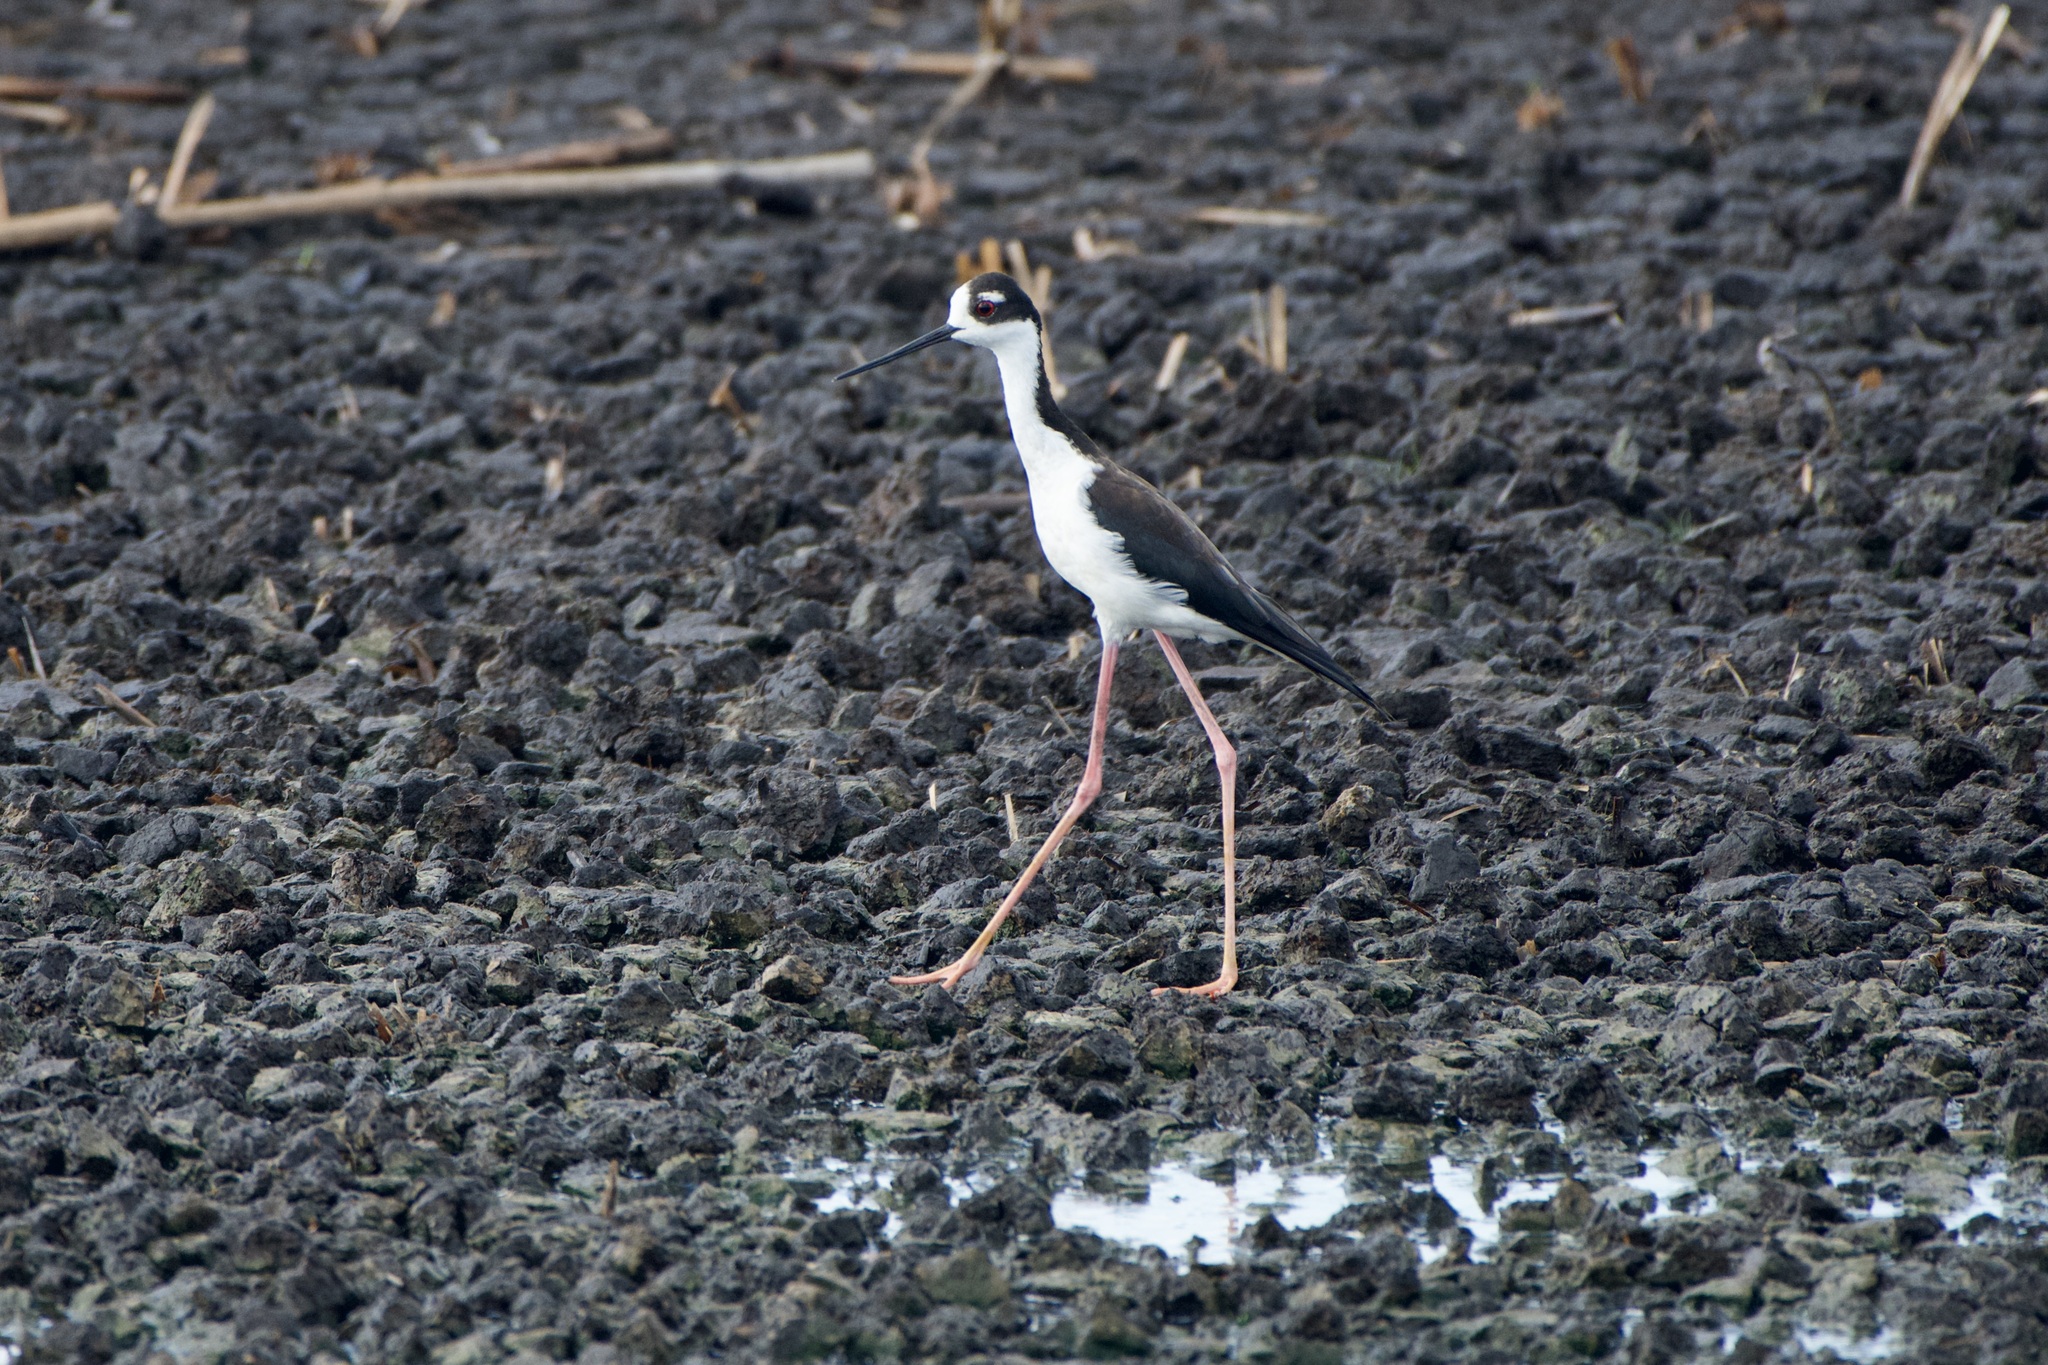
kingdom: Animalia
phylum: Chordata
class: Aves
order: Charadriiformes
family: Recurvirostridae
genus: Himantopus
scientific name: Himantopus mexicanus
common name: Black-necked stilt
